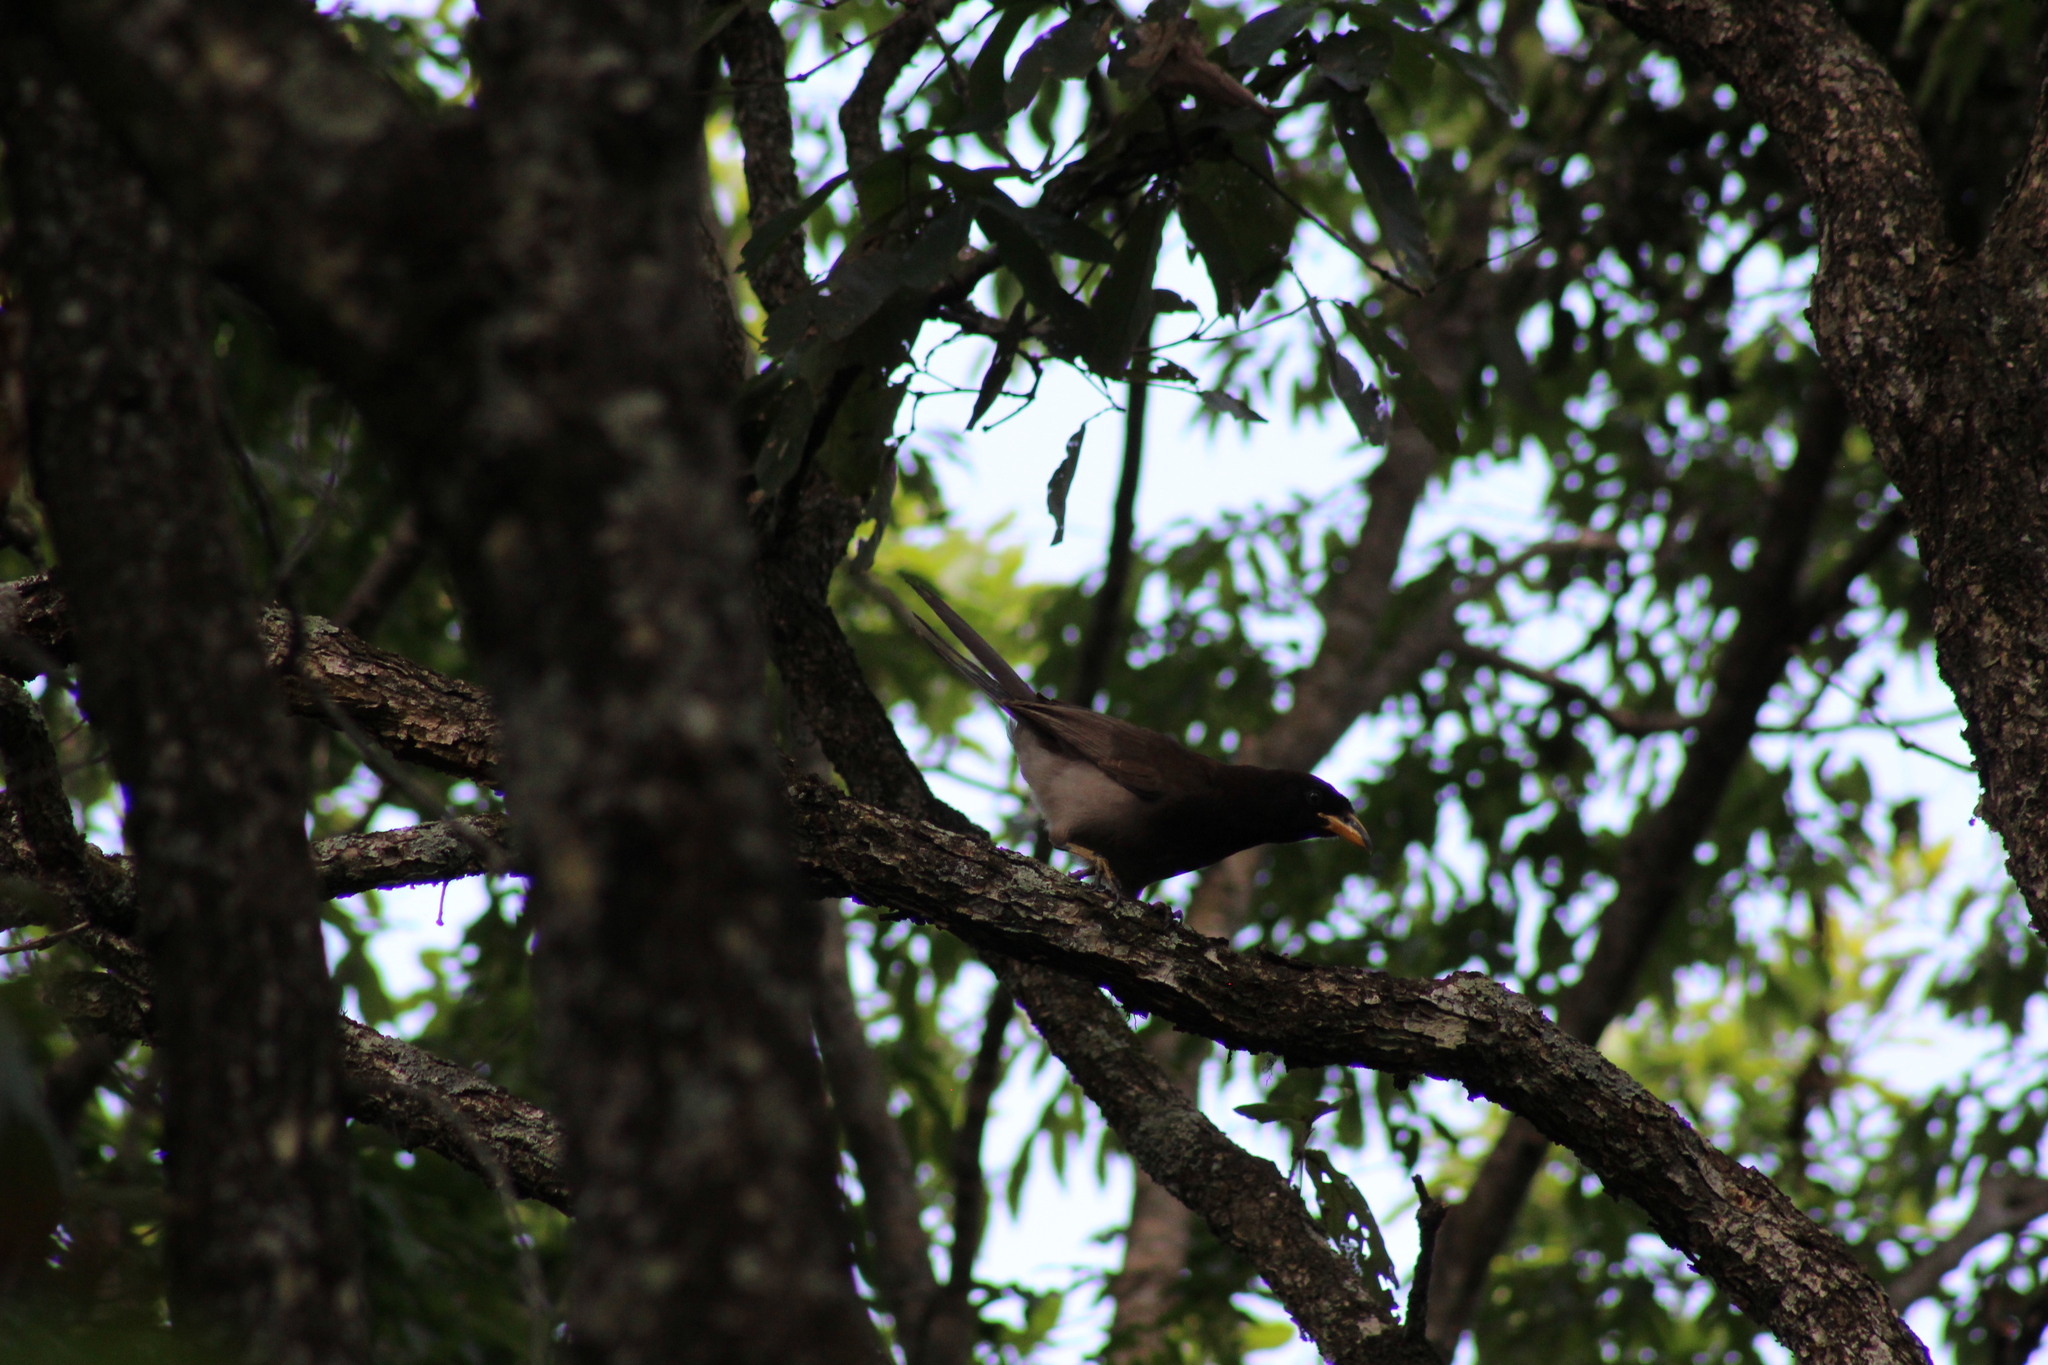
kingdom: Animalia
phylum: Chordata
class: Aves
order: Passeriformes
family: Corvidae
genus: Psilorhinus
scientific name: Psilorhinus morio
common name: Brown jay
